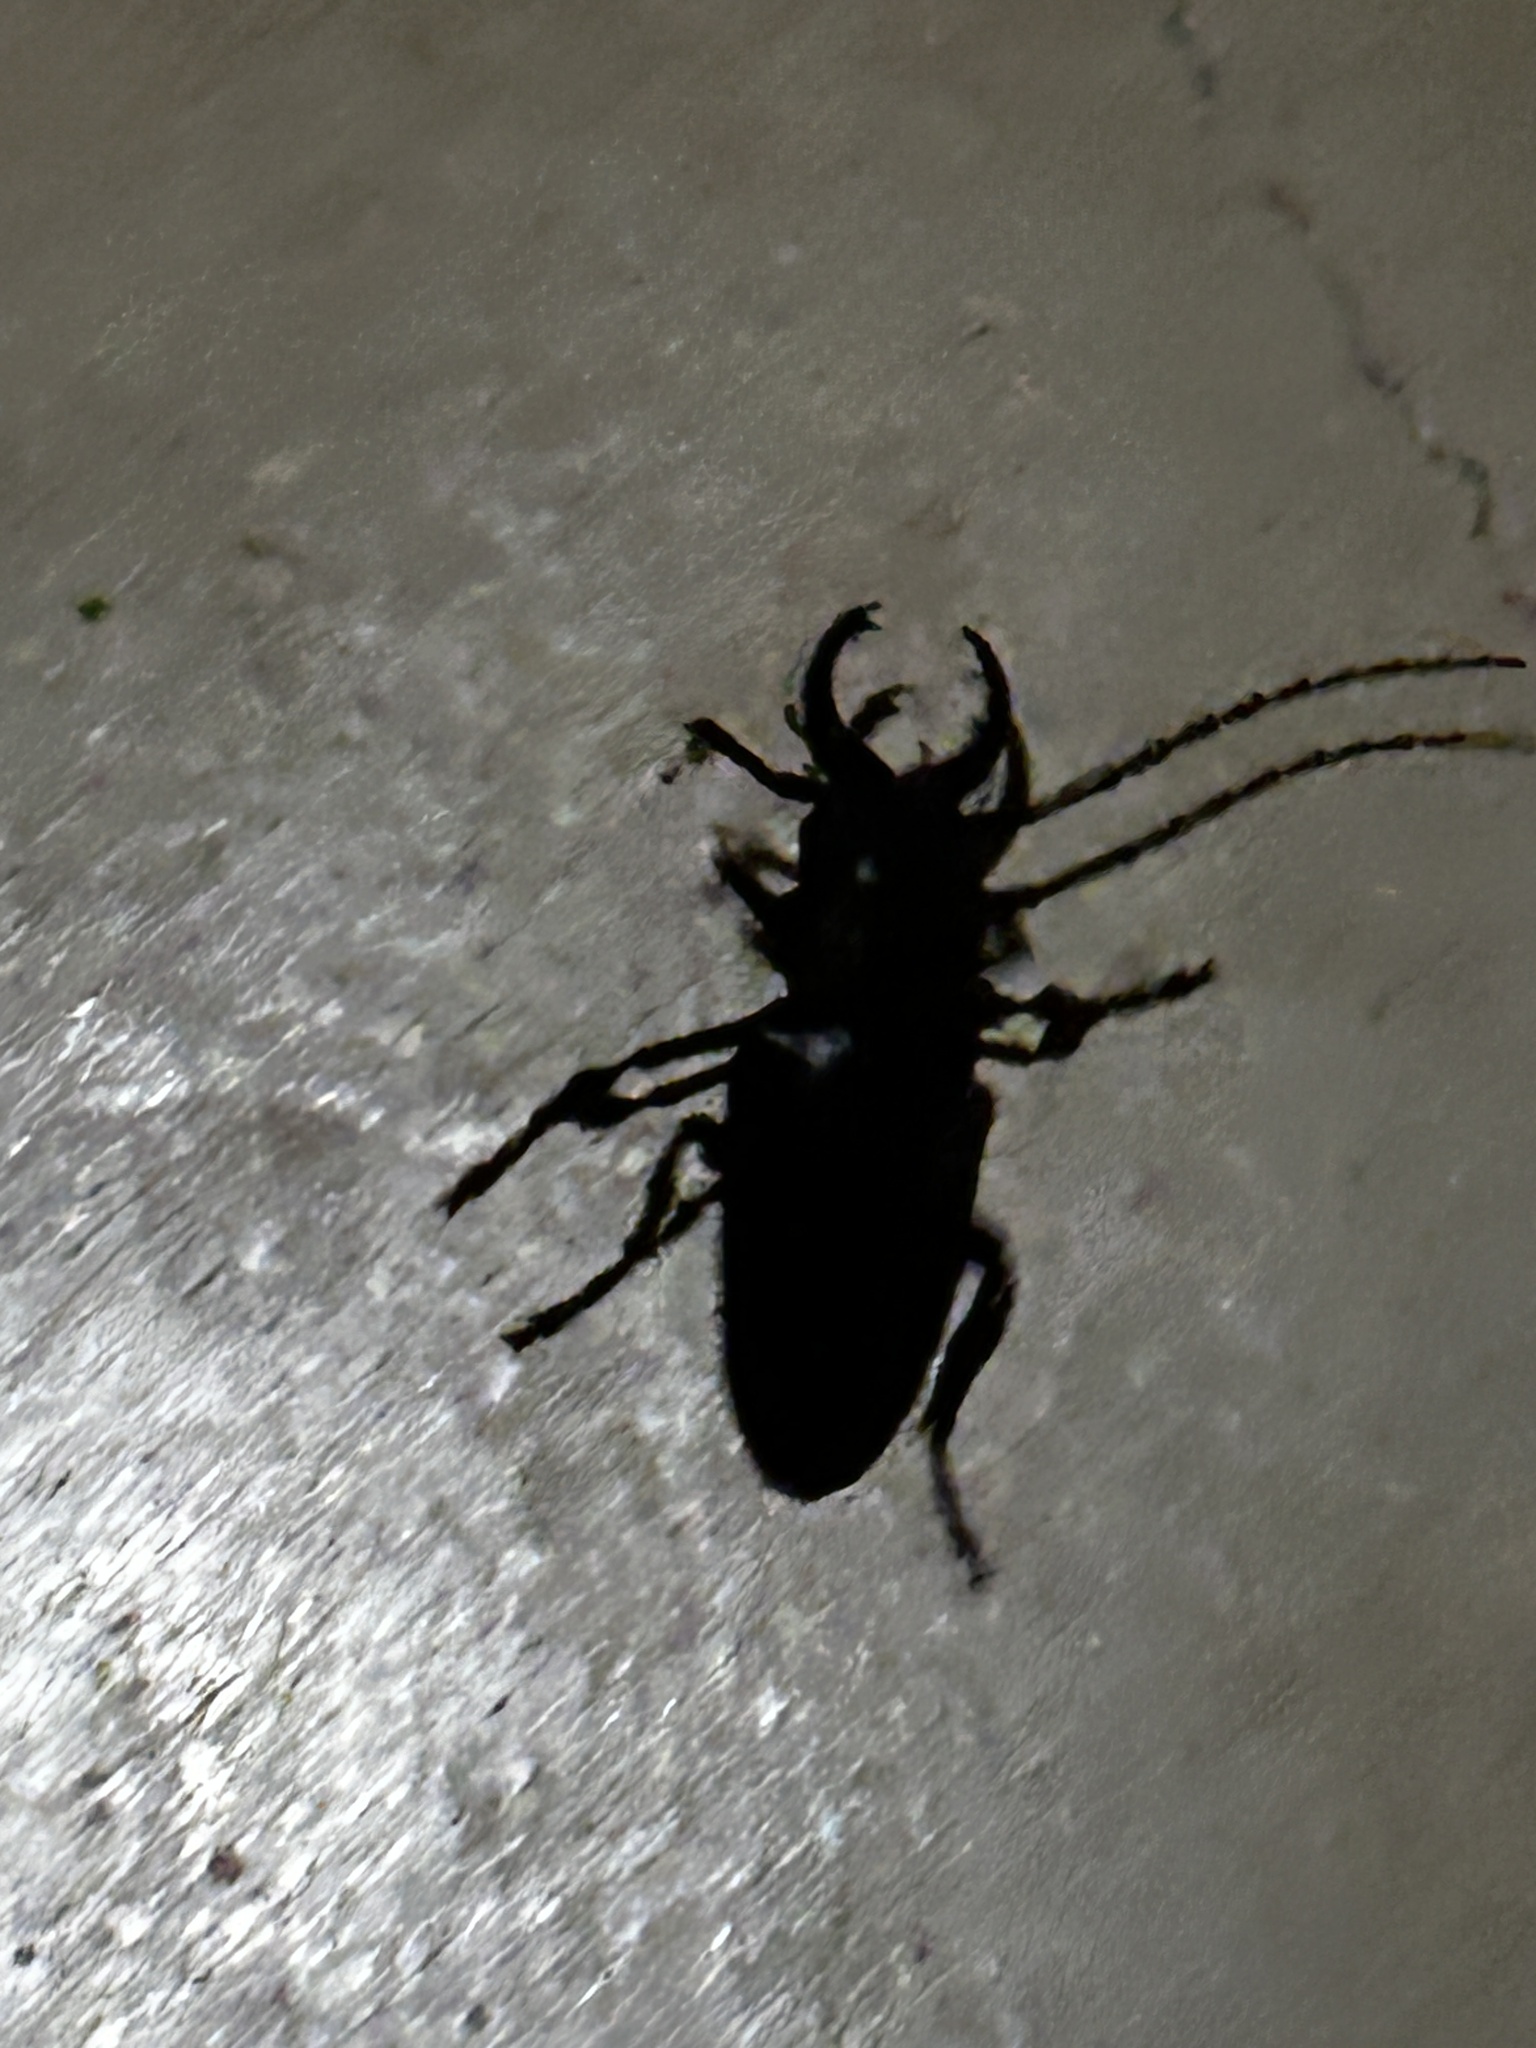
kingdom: Animalia
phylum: Arthropoda
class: Insecta
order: Coleoptera
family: Cerambycidae
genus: Cacosceles
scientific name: Cacosceles oedipus
